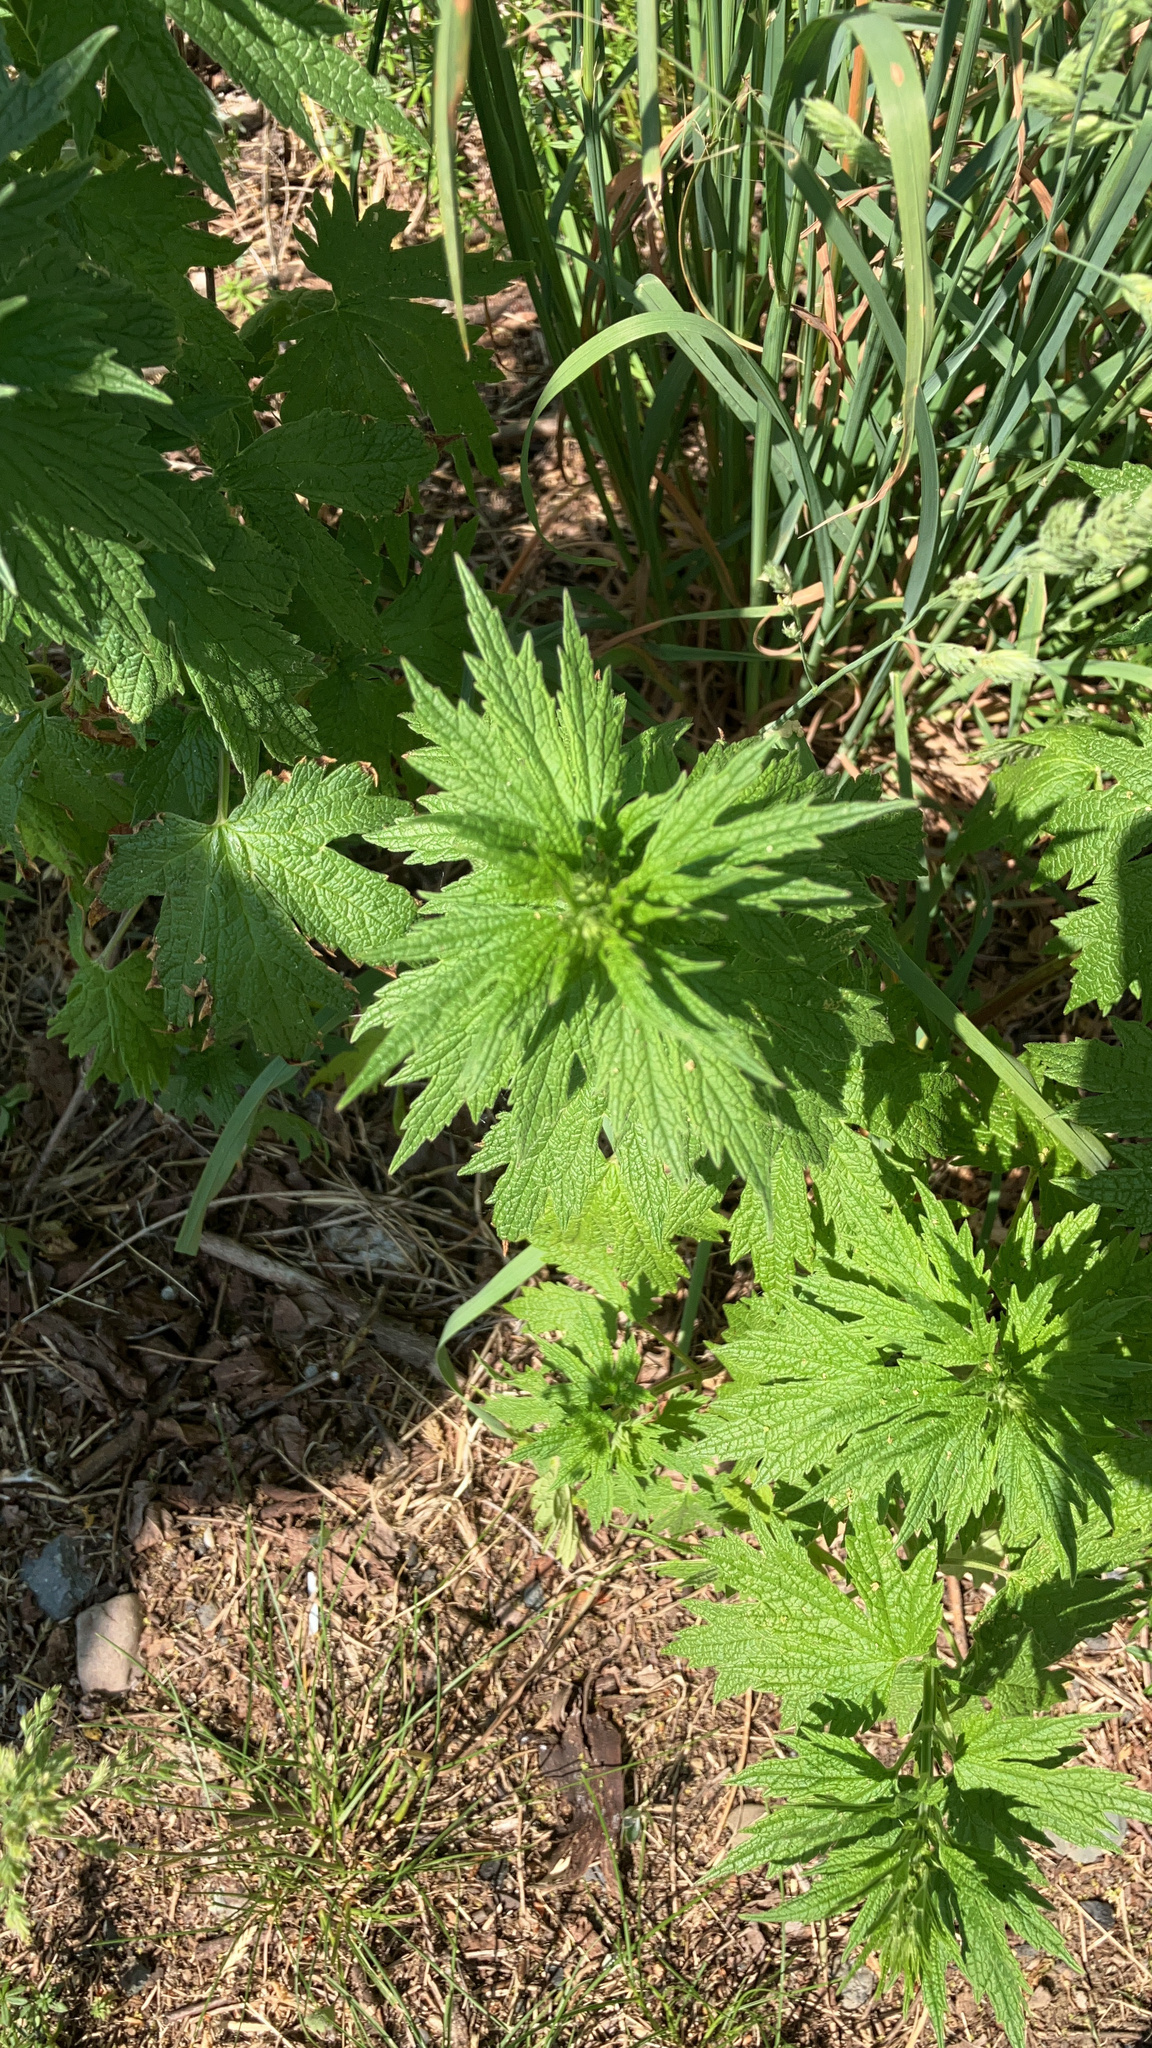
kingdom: Plantae
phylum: Tracheophyta
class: Magnoliopsida
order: Lamiales
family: Lamiaceae
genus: Leonurus
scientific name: Leonurus cardiaca
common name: Motherwort
